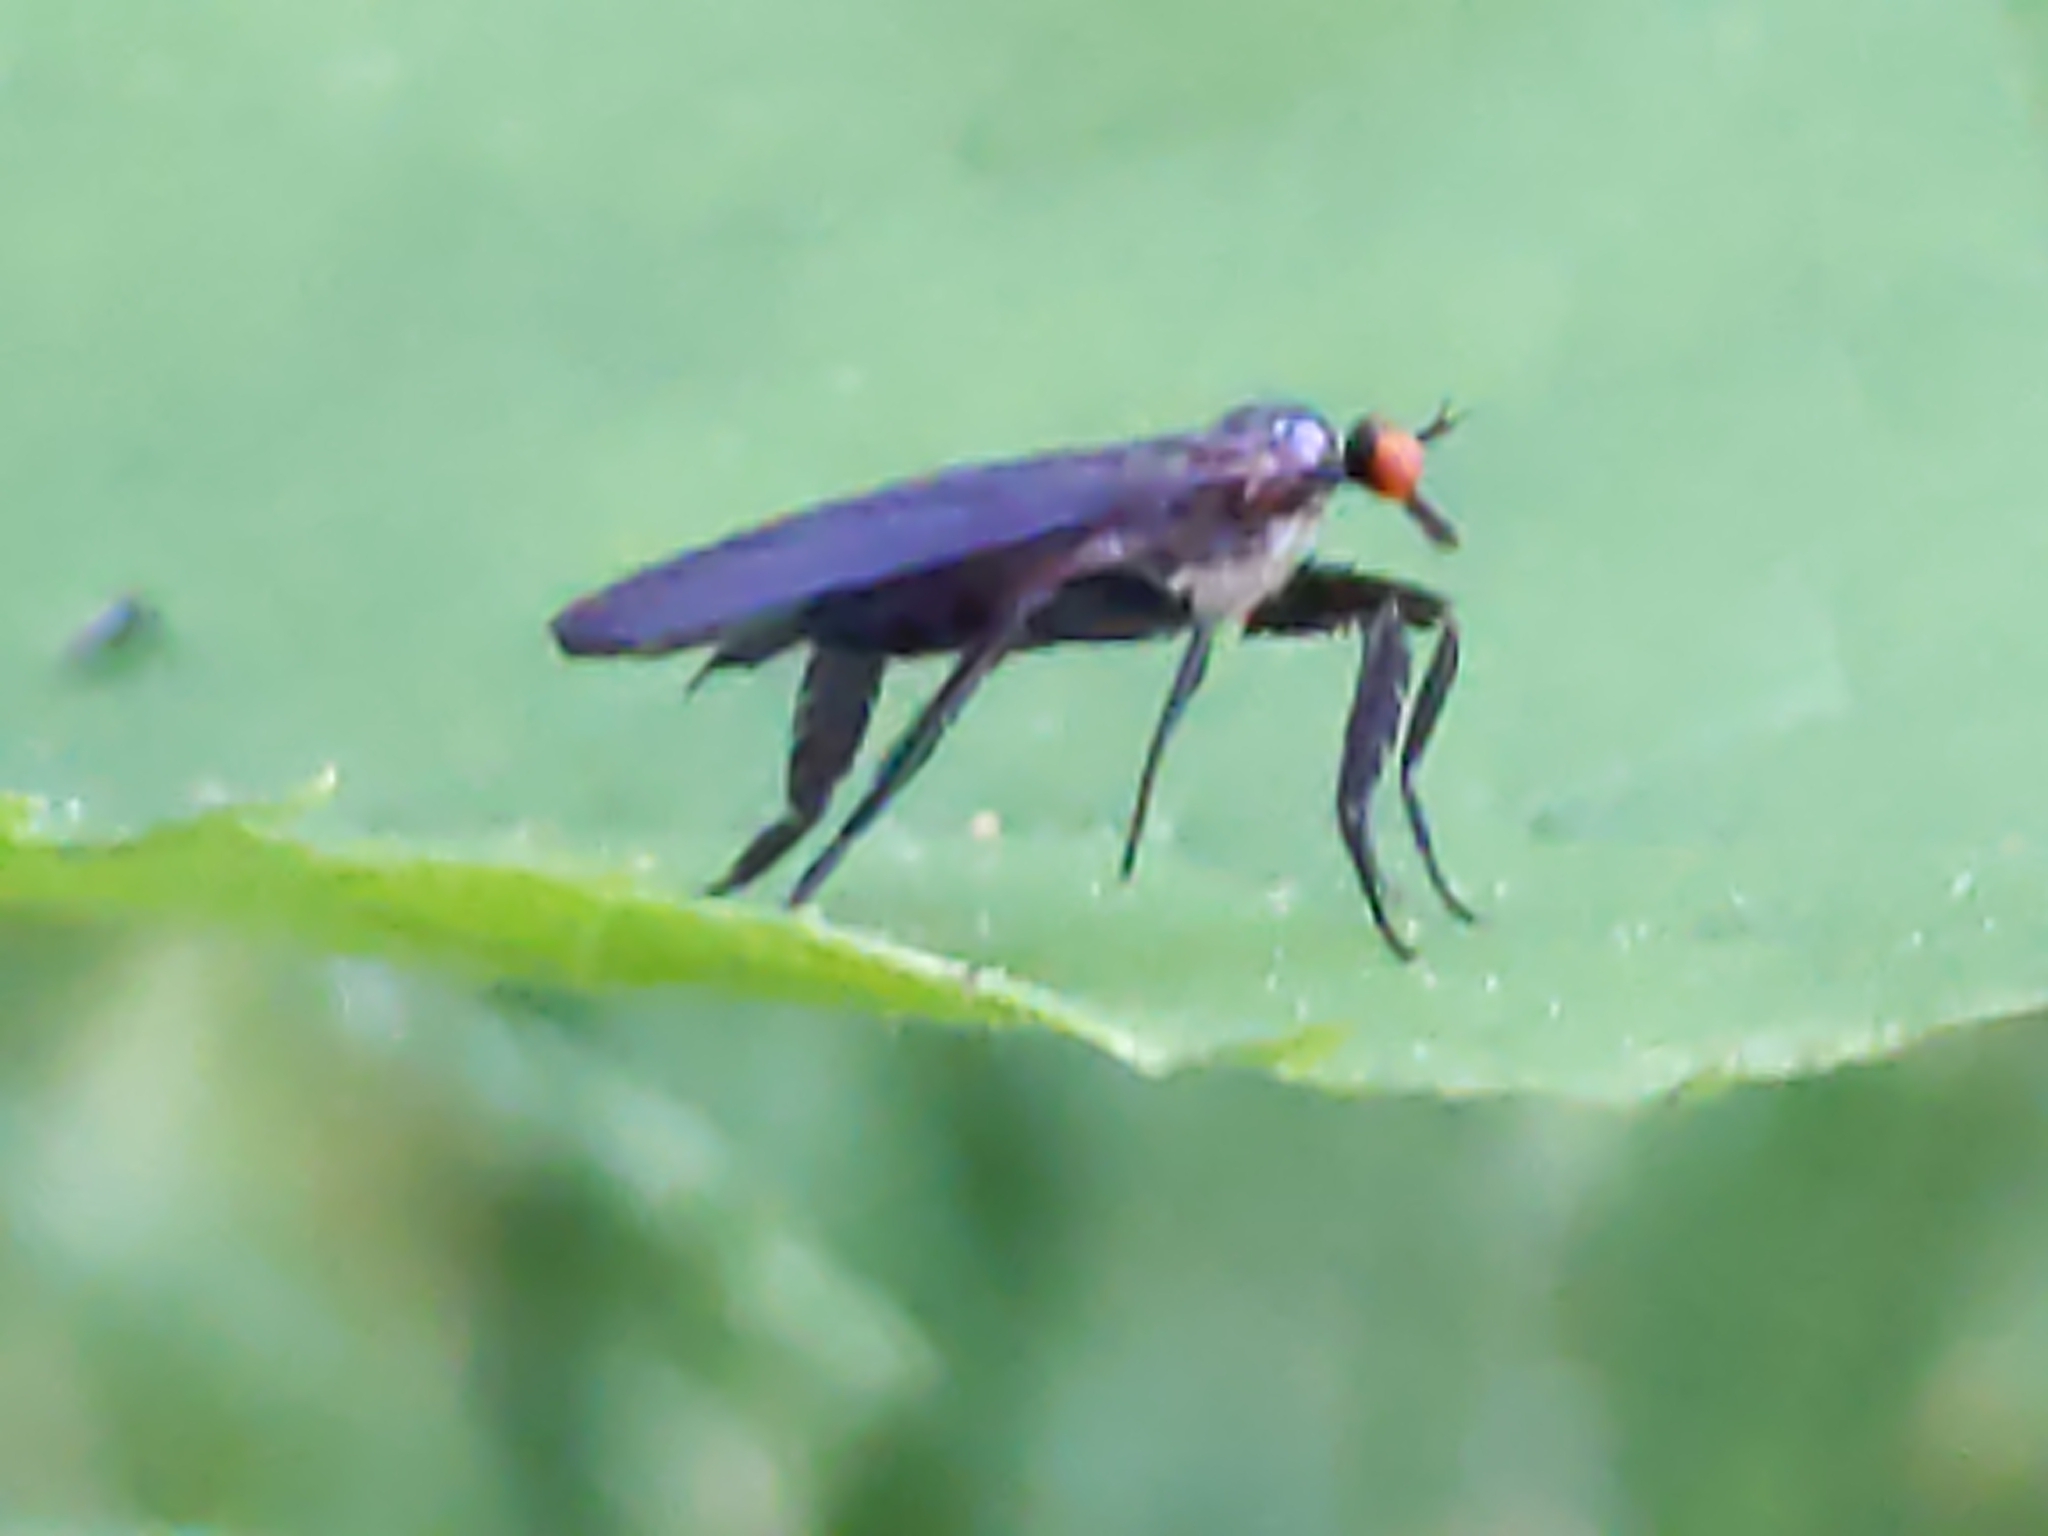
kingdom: Animalia
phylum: Arthropoda
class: Insecta
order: Diptera
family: Empididae
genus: Rhamphomyia
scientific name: Rhamphomyia longicauda
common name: Long-tailed dance fly
